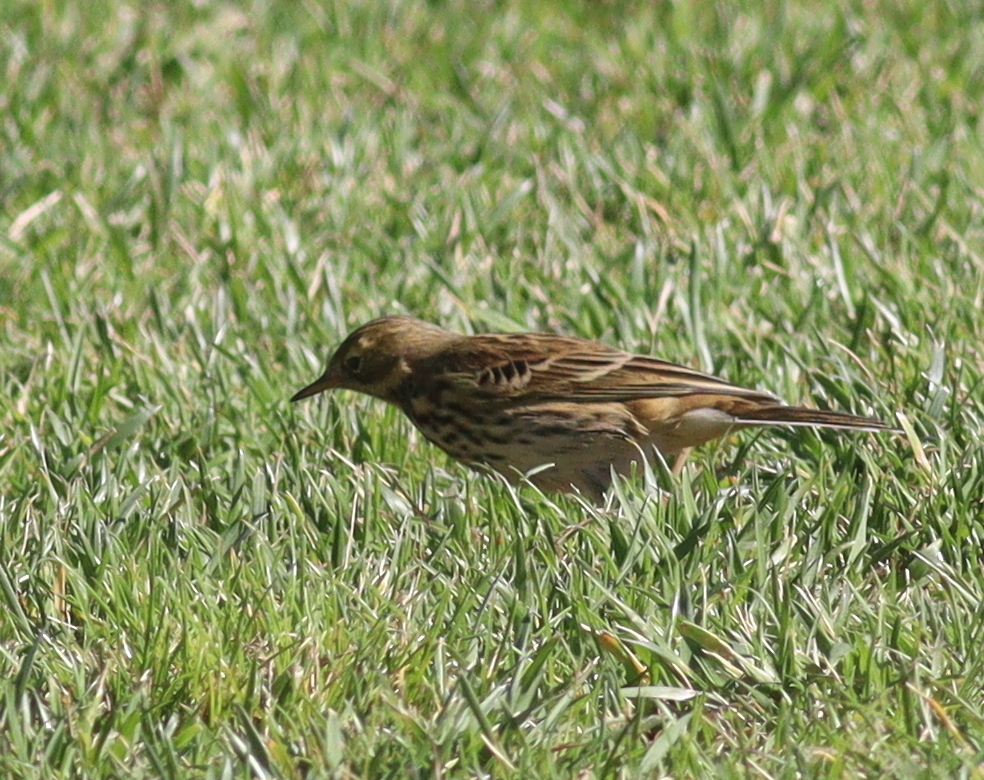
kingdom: Animalia
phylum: Chordata
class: Aves
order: Passeriformes
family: Motacillidae
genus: Anthus
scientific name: Anthus pratensis
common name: Meadow pipit
